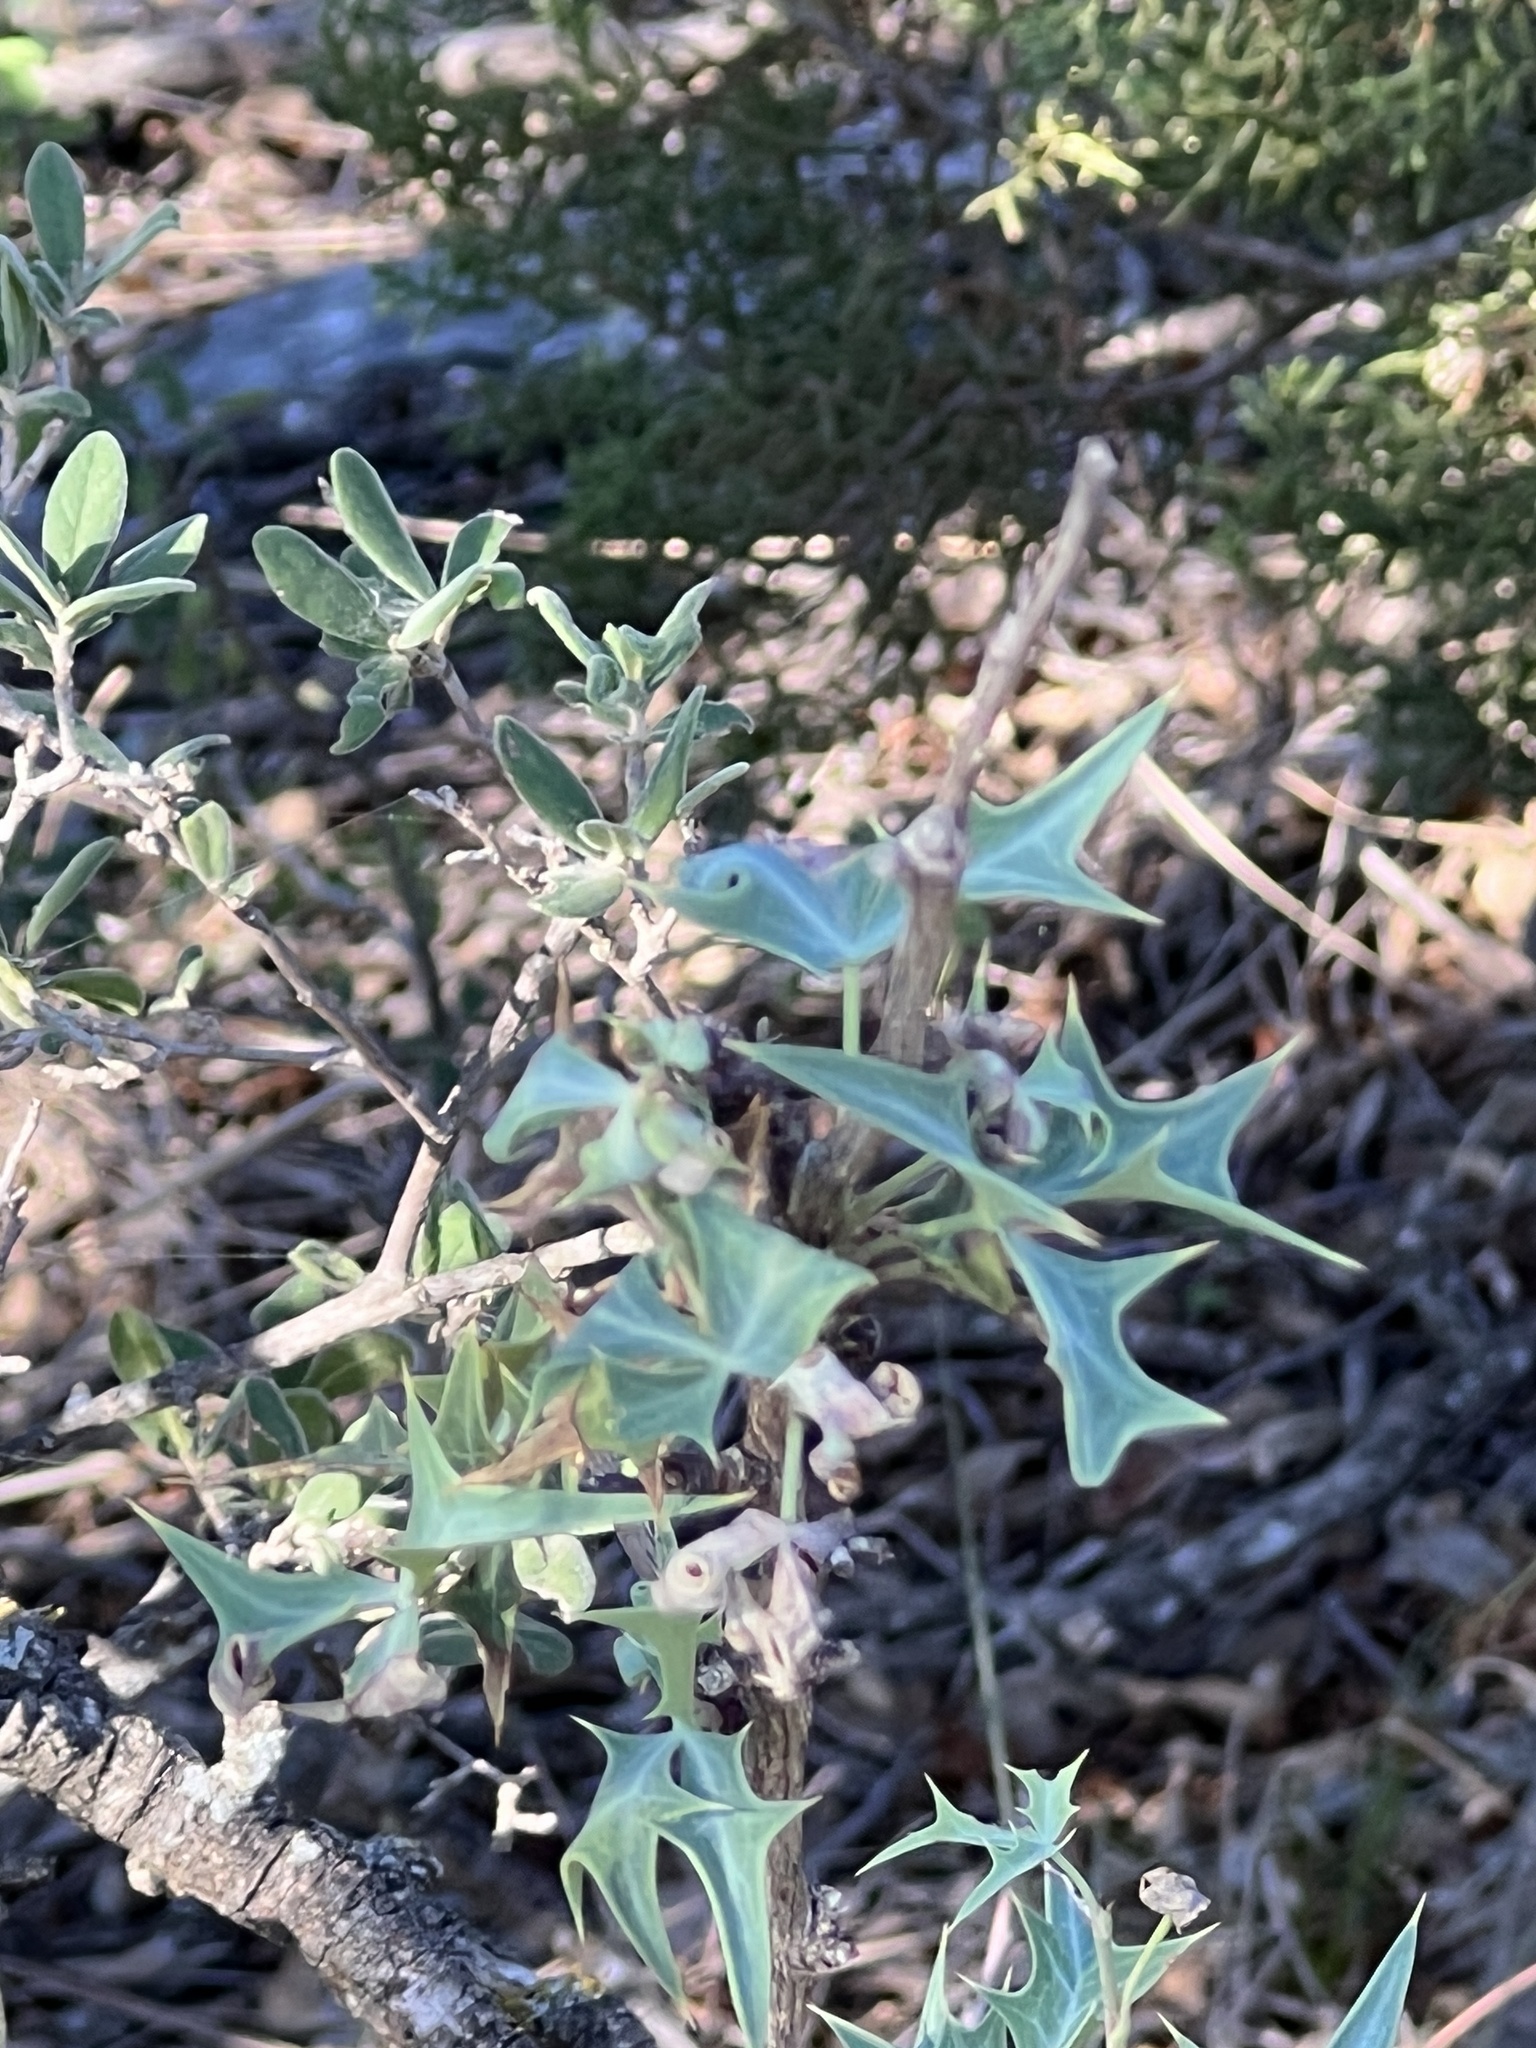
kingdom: Plantae
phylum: Tracheophyta
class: Magnoliopsida
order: Ranunculales
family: Berberidaceae
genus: Alloberberis
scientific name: Alloberberis trifoliolata
